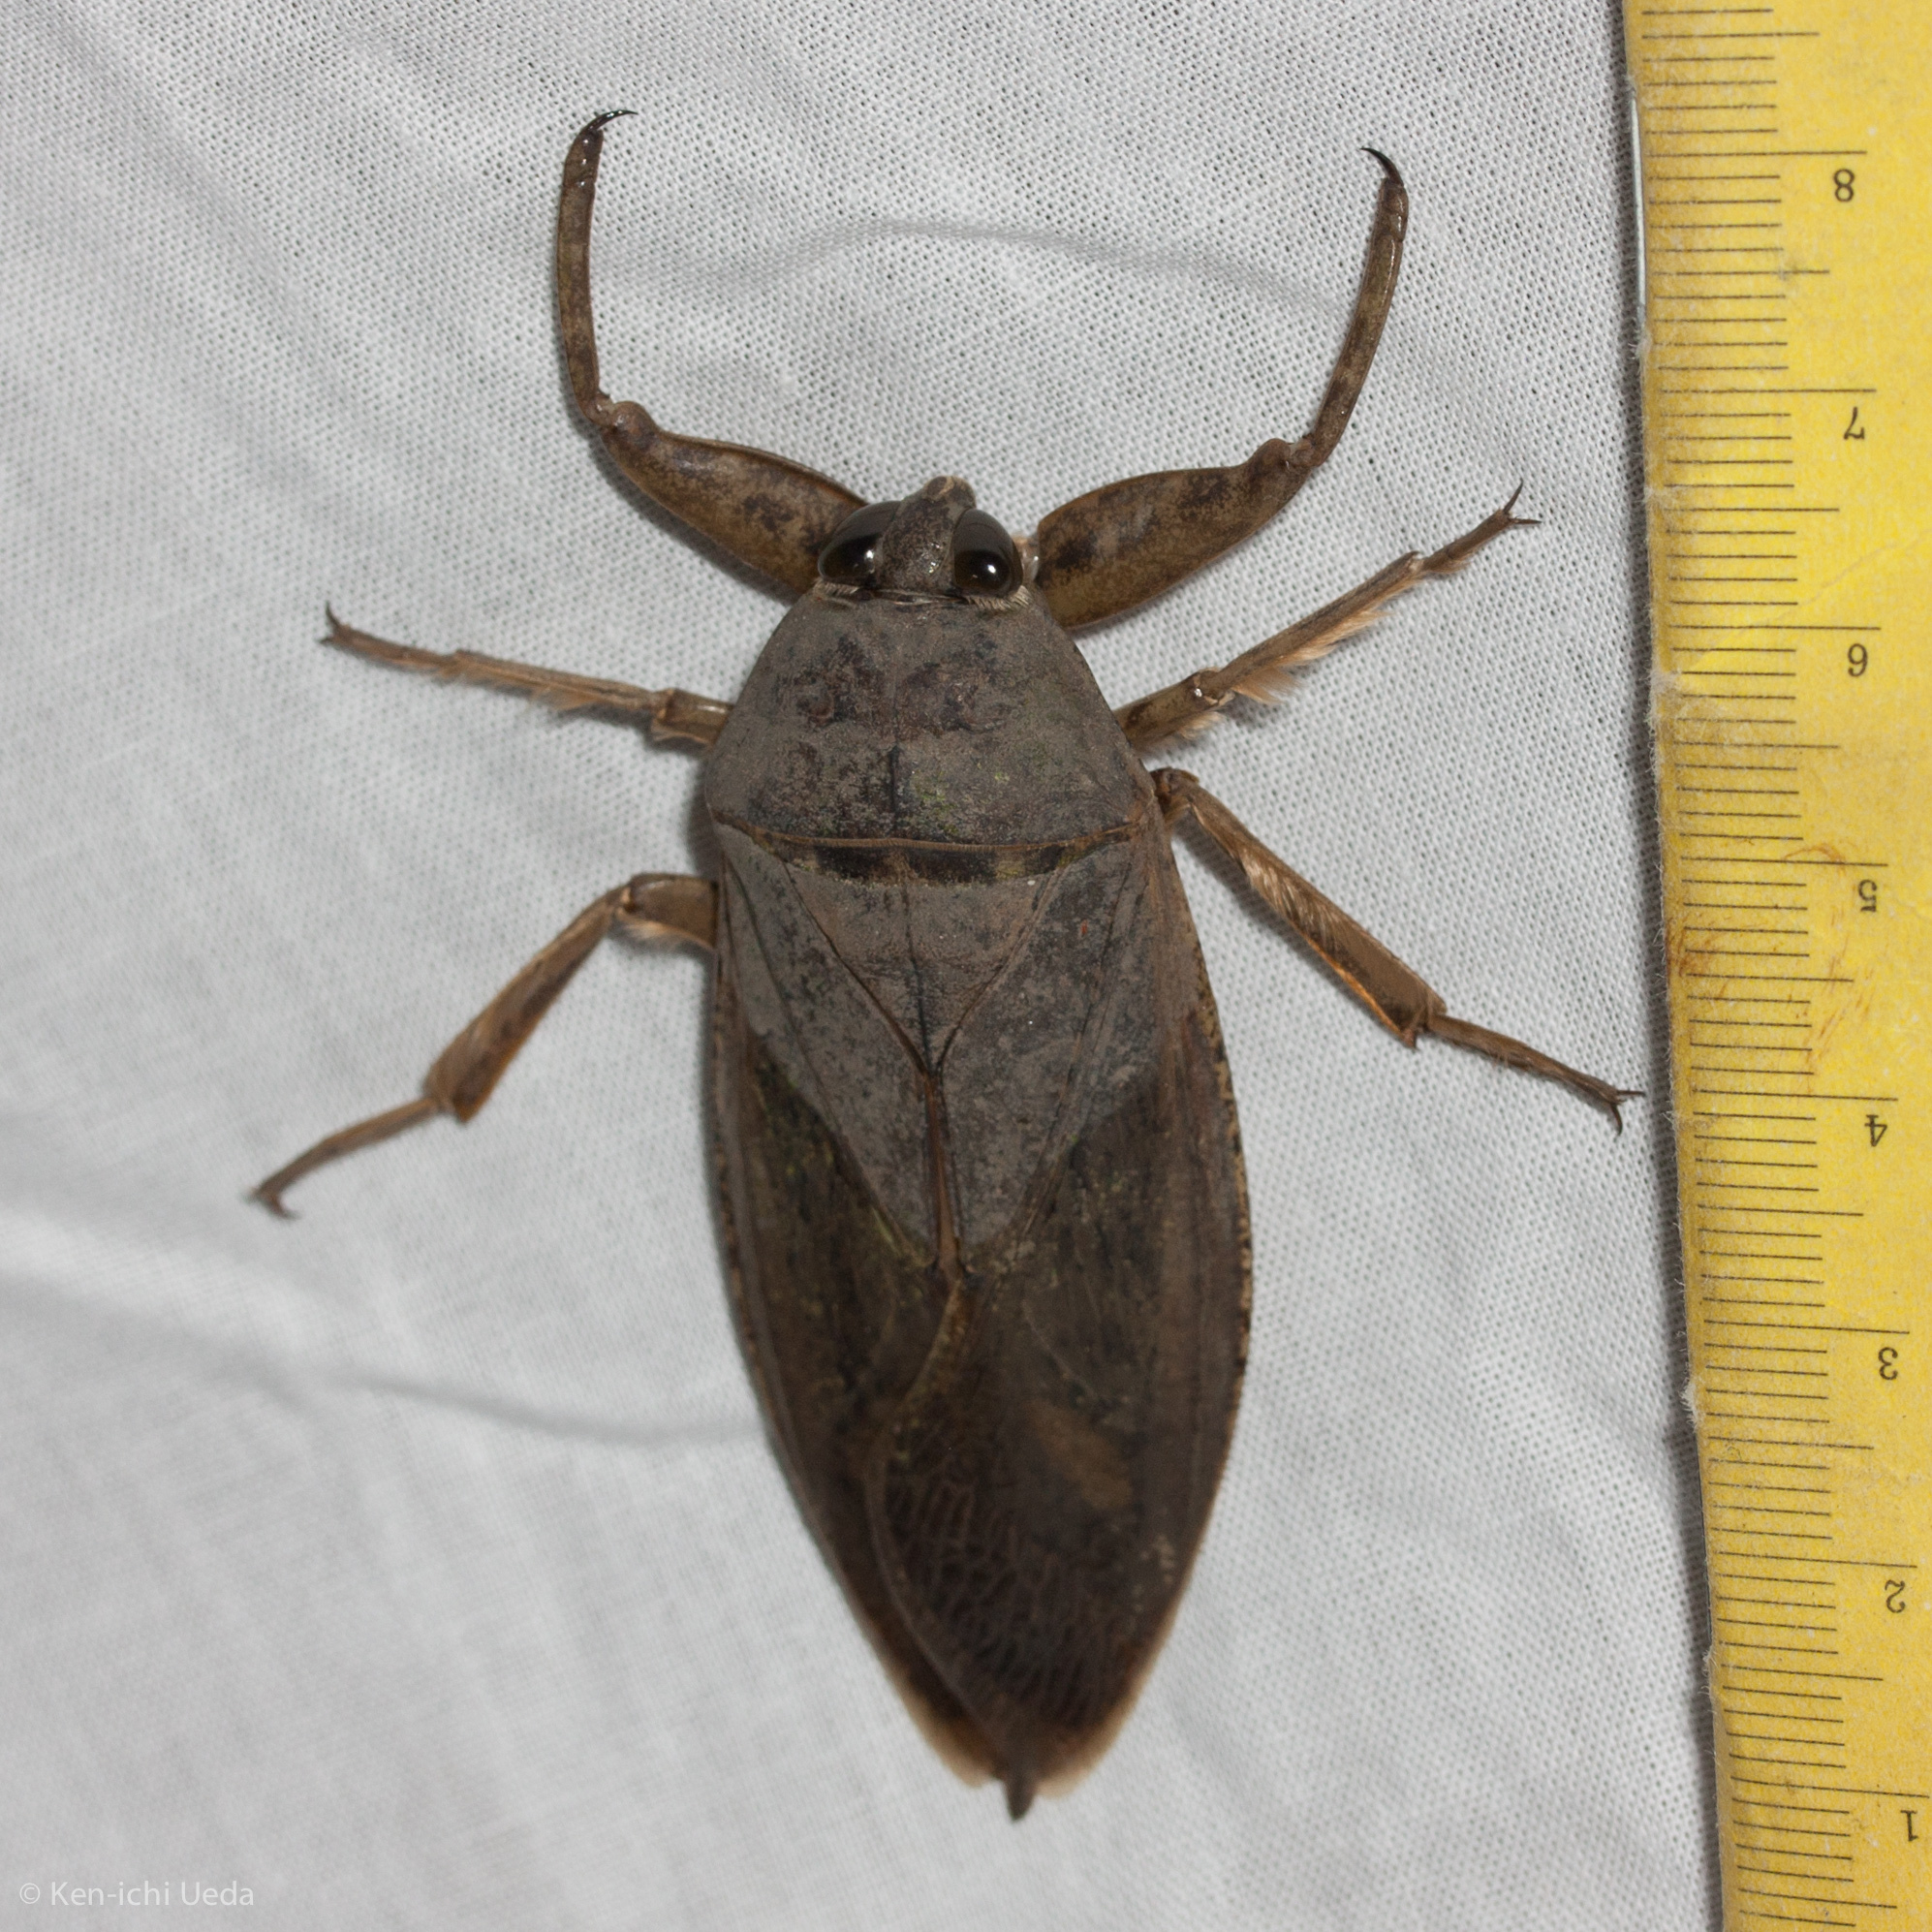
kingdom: Animalia
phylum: Arthropoda
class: Insecta
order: Hemiptera
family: Belostomatidae
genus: Lethocerus
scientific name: Lethocerus americanus
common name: Giant water bug
